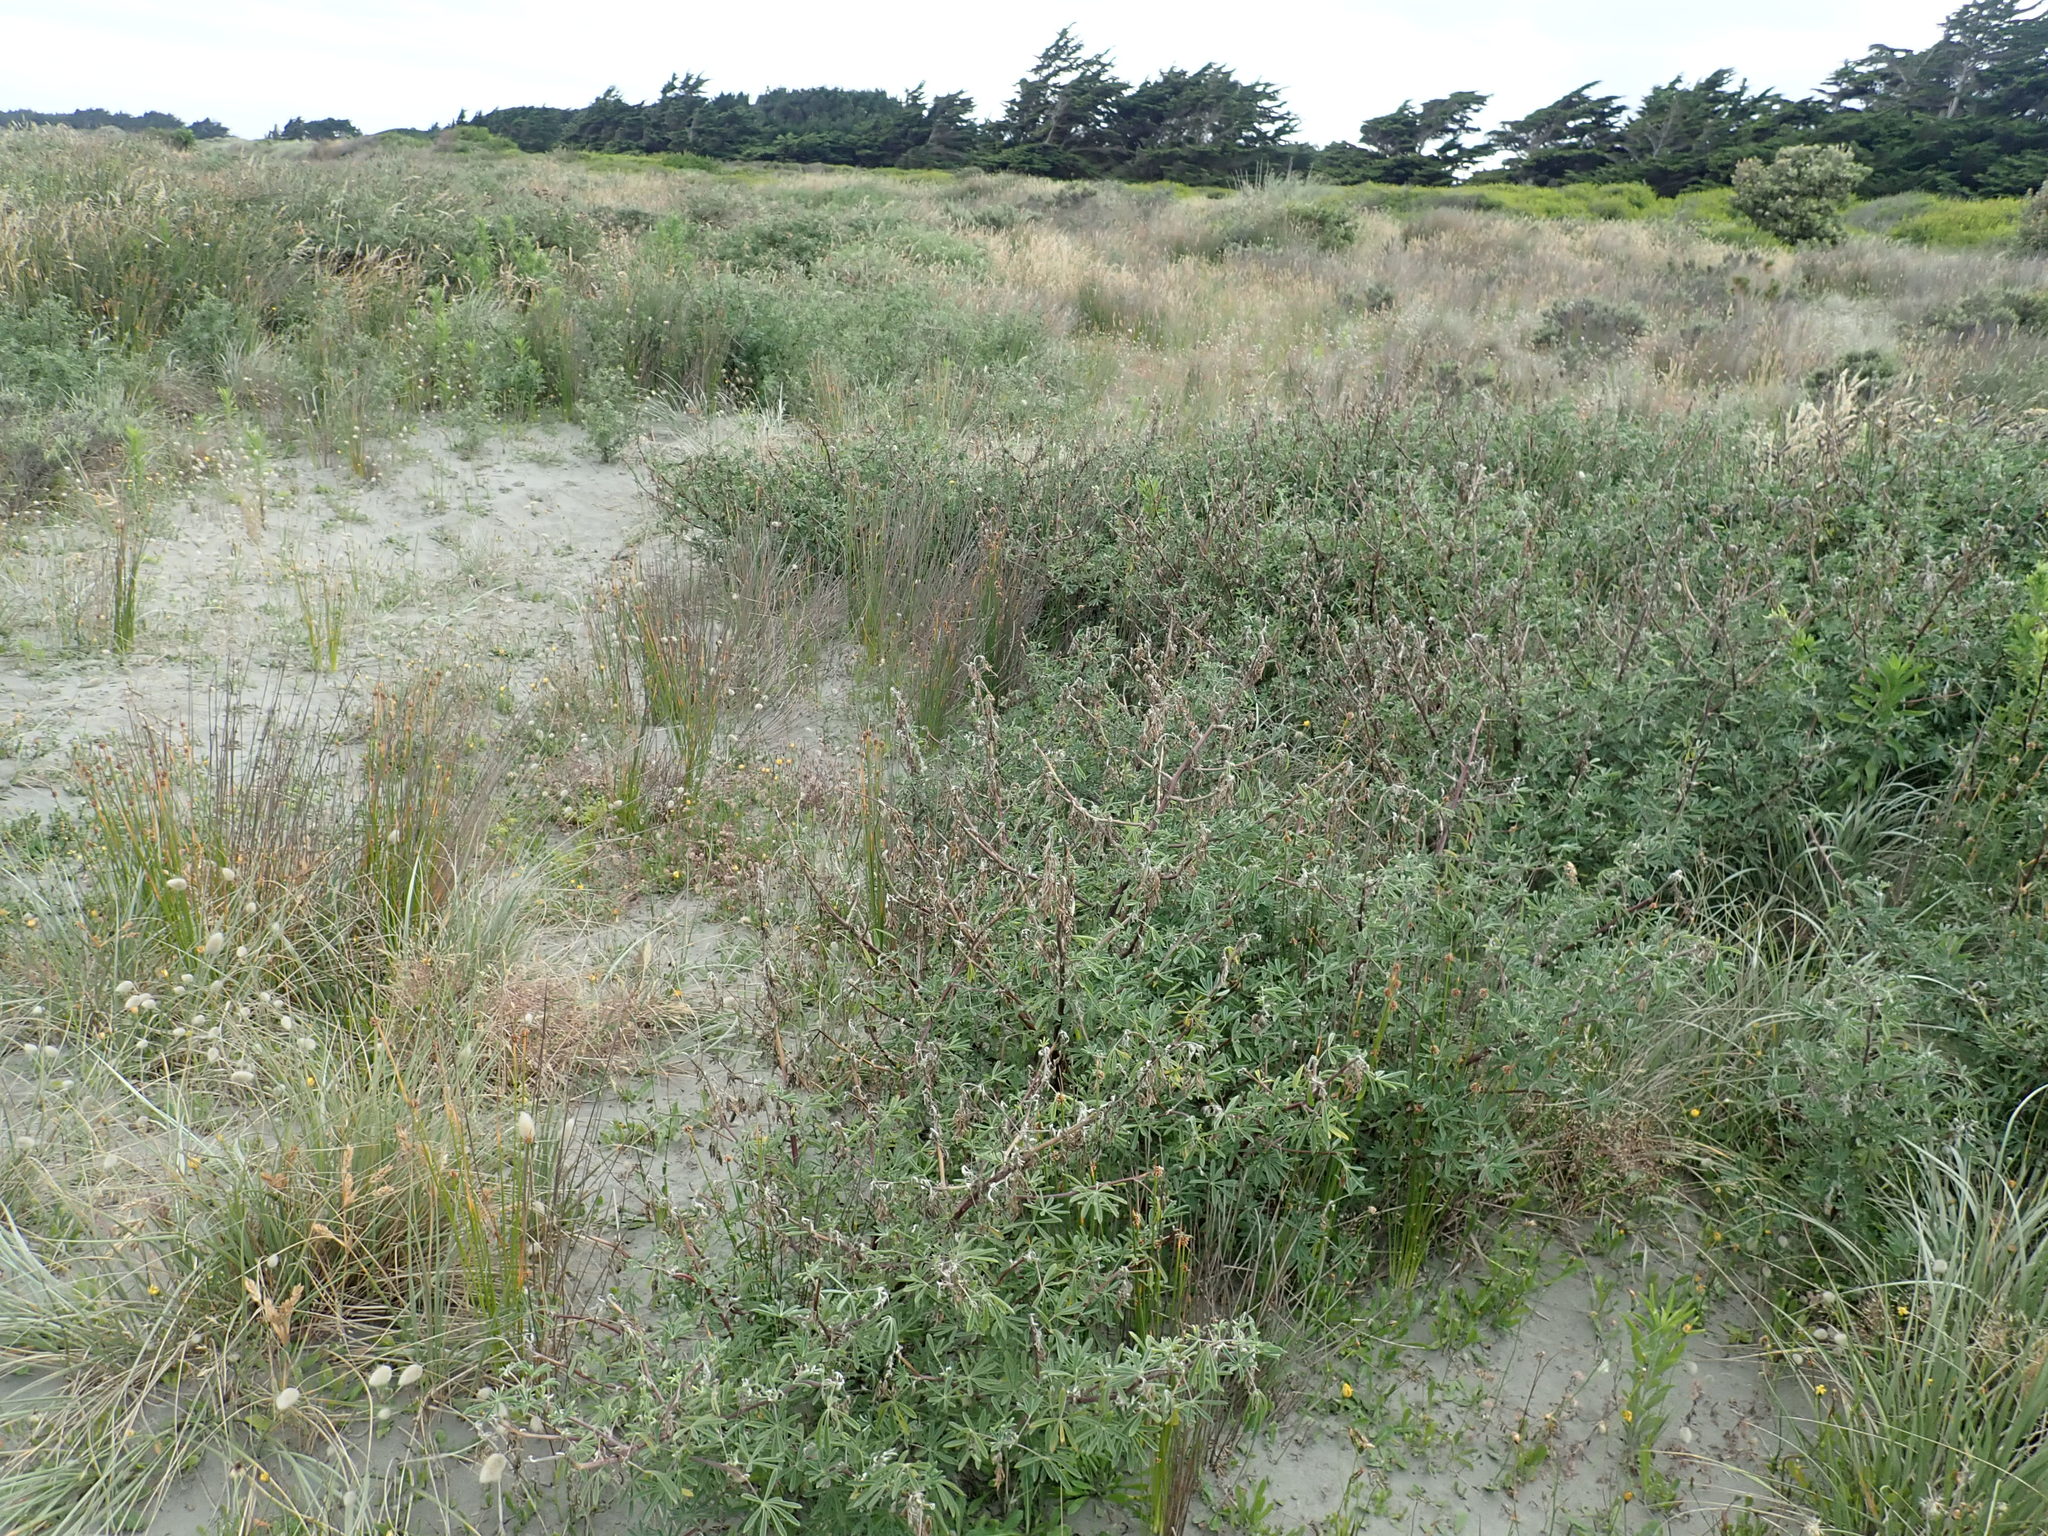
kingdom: Plantae
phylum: Tracheophyta
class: Magnoliopsida
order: Fabales
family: Fabaceae
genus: Lupinus
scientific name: Lupinus arboreus
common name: Yellow bush lupine
